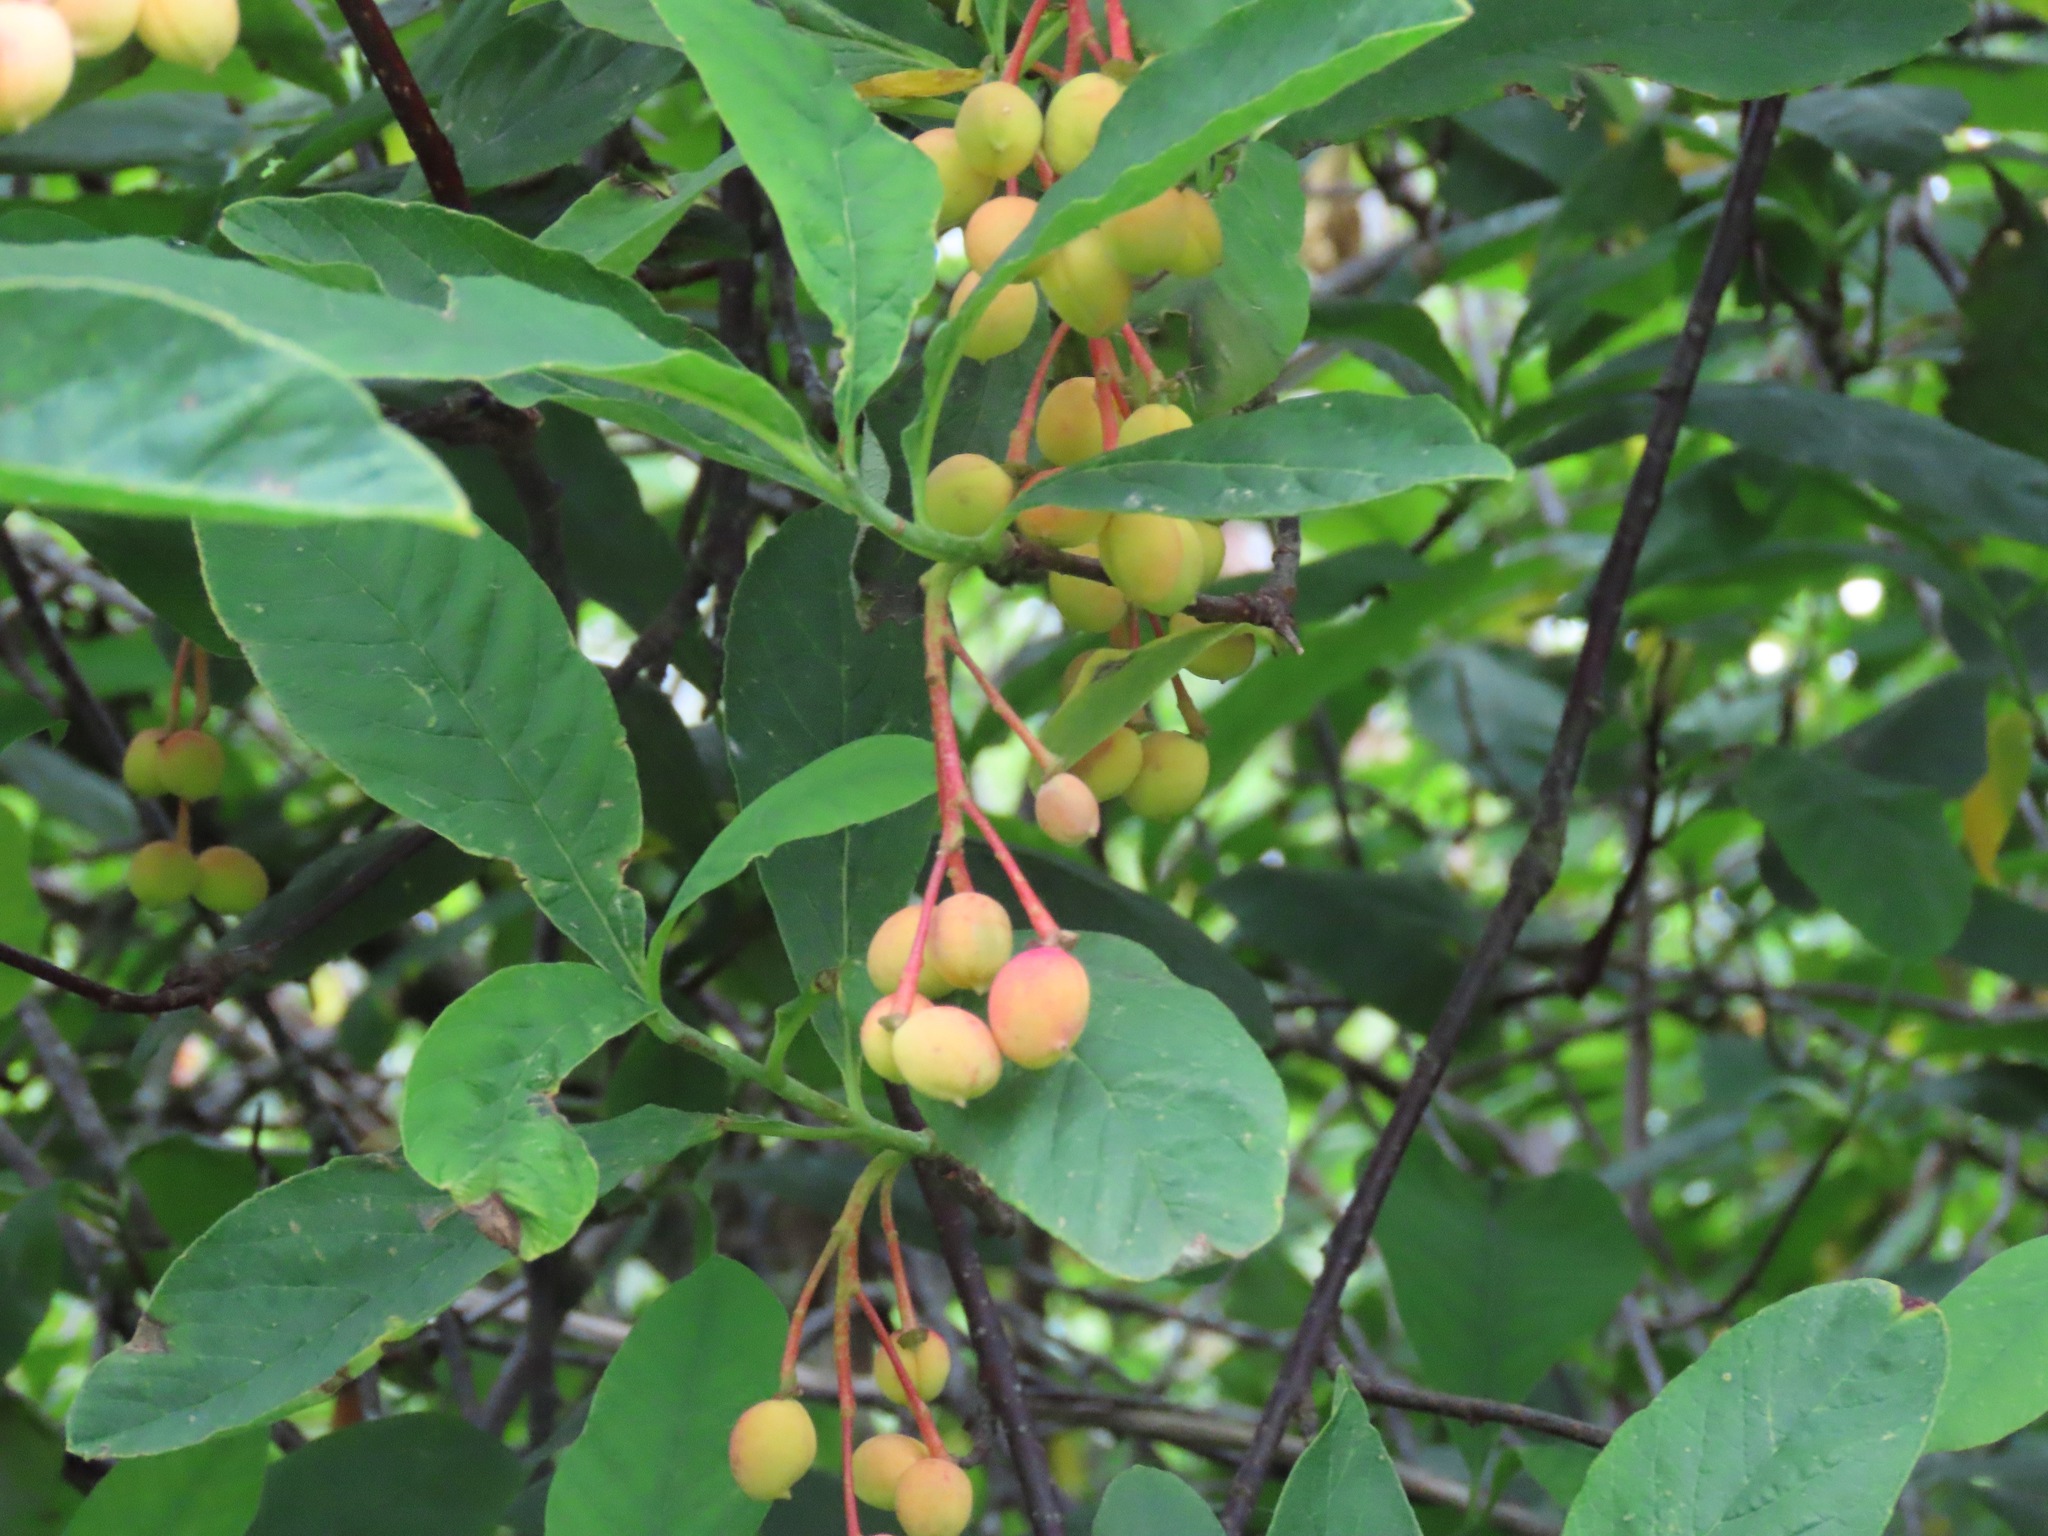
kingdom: Plantae
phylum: Tracheophyta
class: Magnoliopsida
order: Rosales
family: Rosaceae
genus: Oemleria
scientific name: Oemleria cerasiformis
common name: Osoberry
